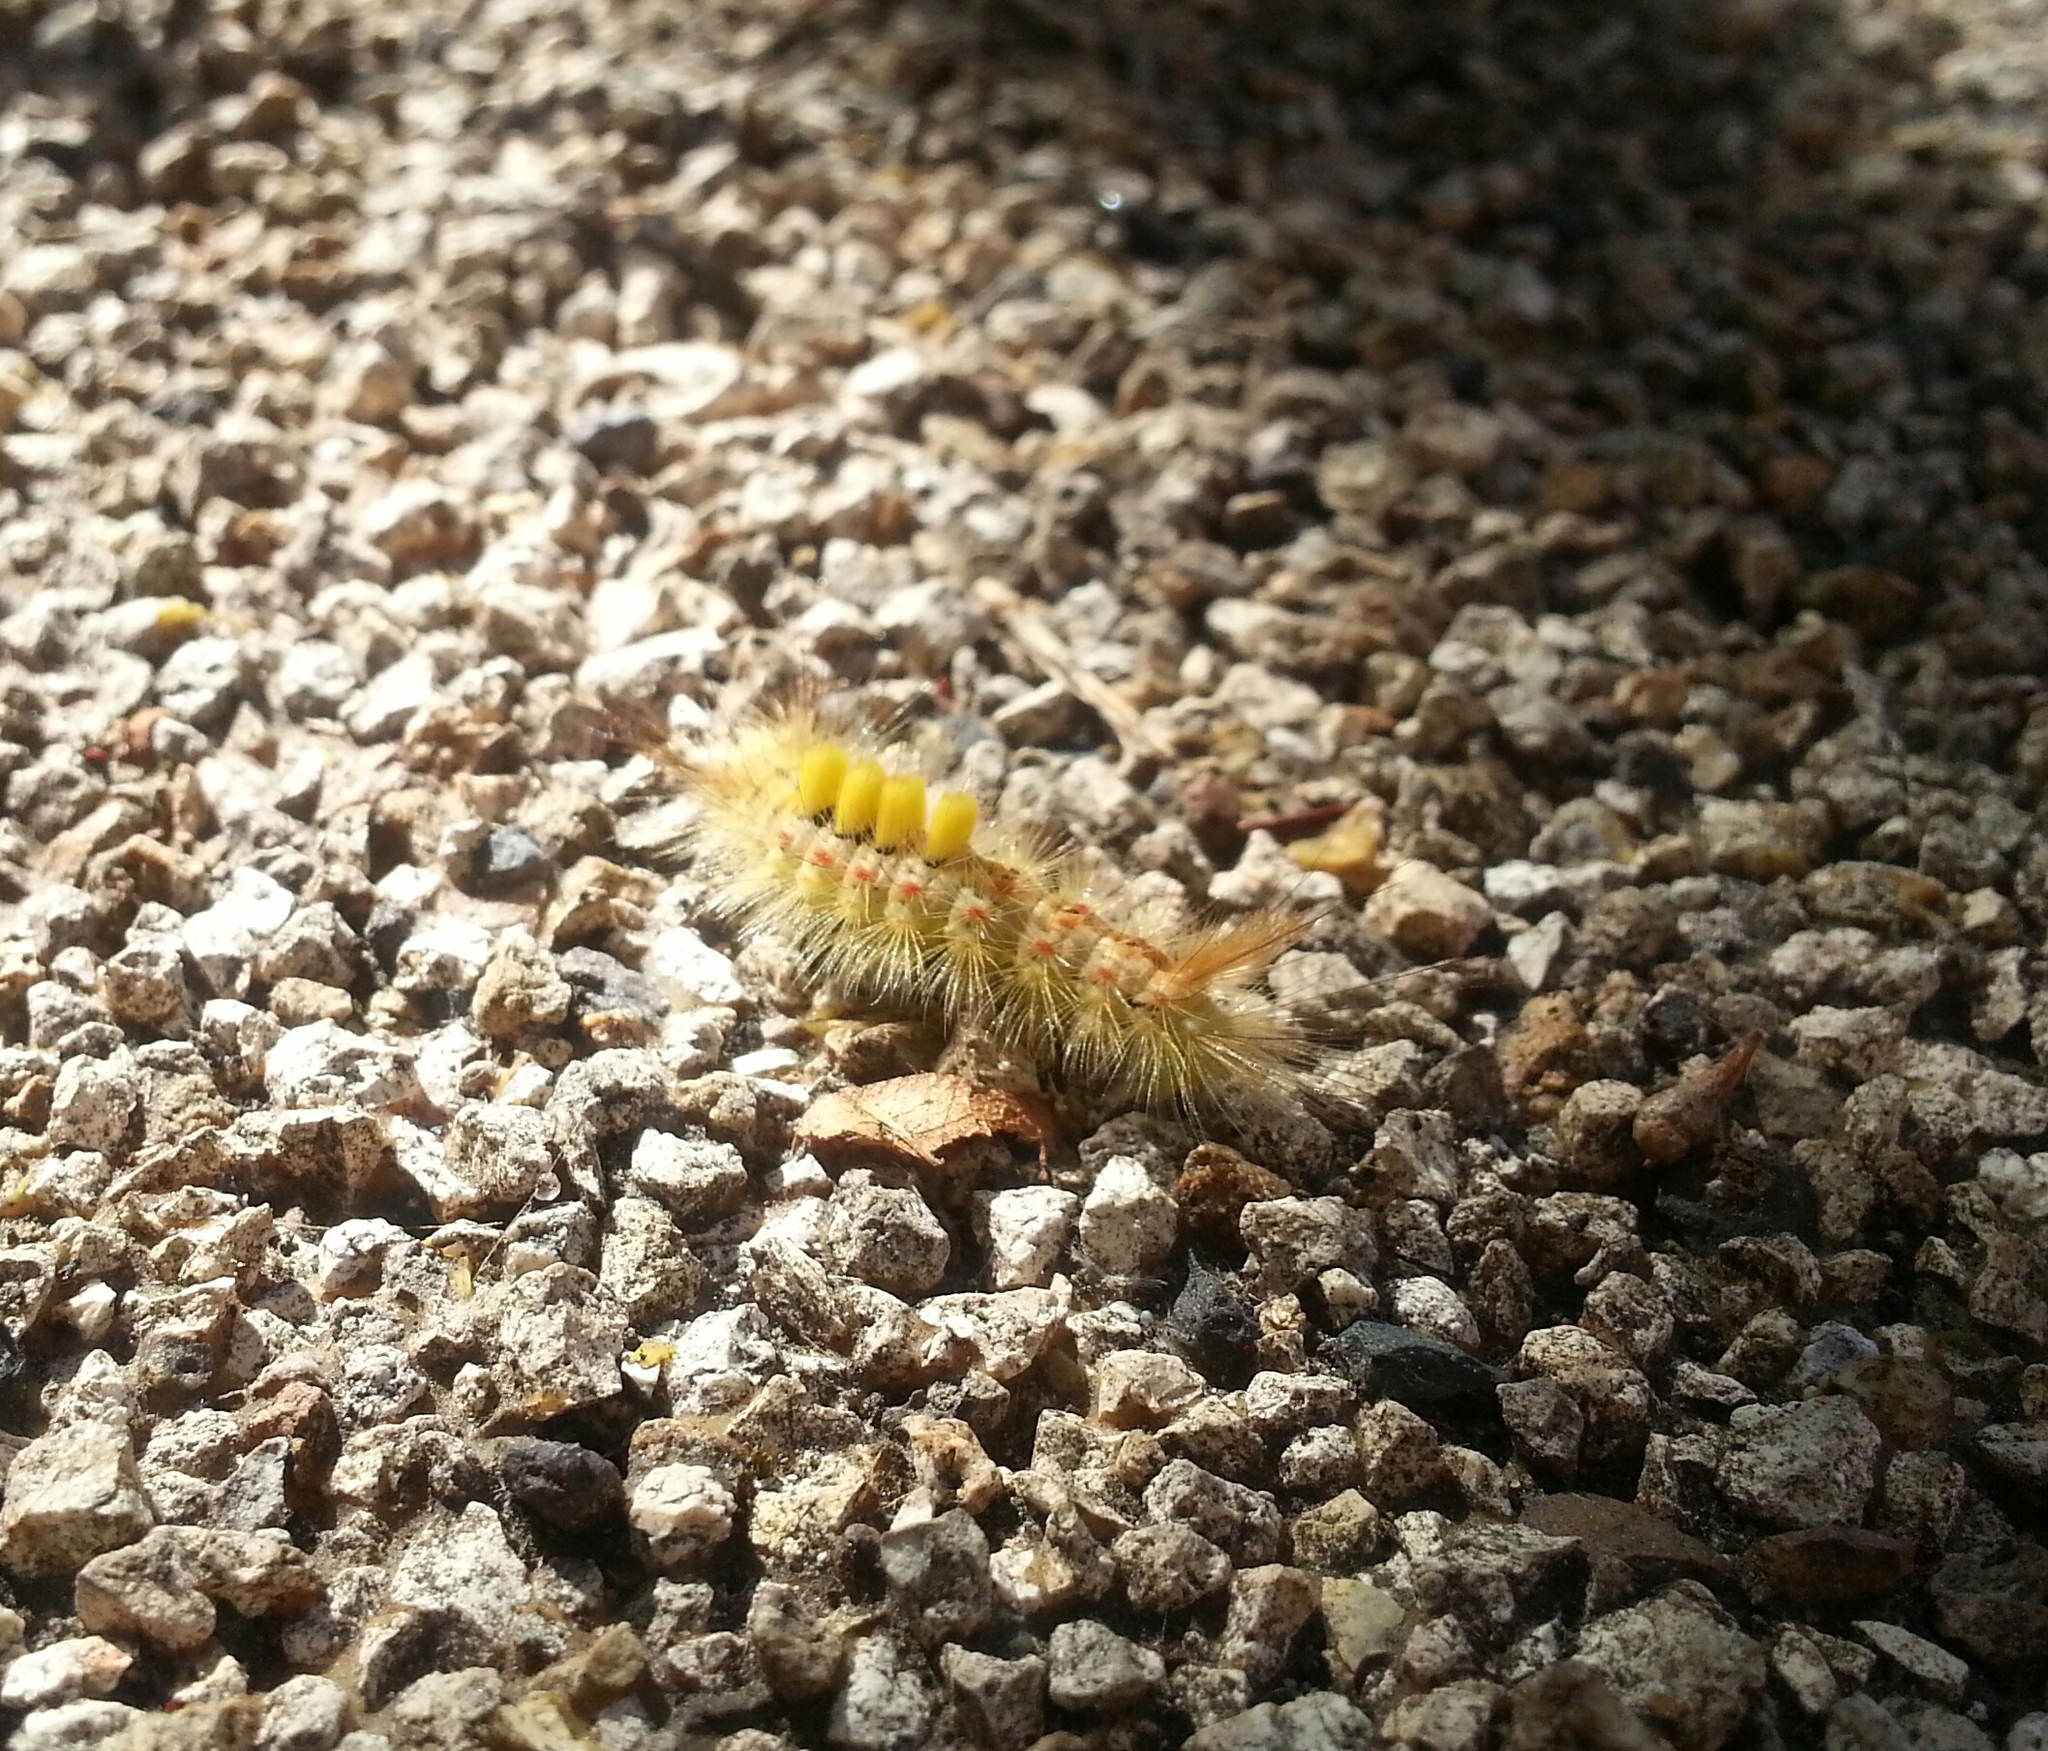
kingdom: Animalia
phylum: Arthropoda
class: Insecta
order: Lepidoptera
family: Erebidae
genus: Orgyia
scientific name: Orgyia antiqua
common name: Vapourer
